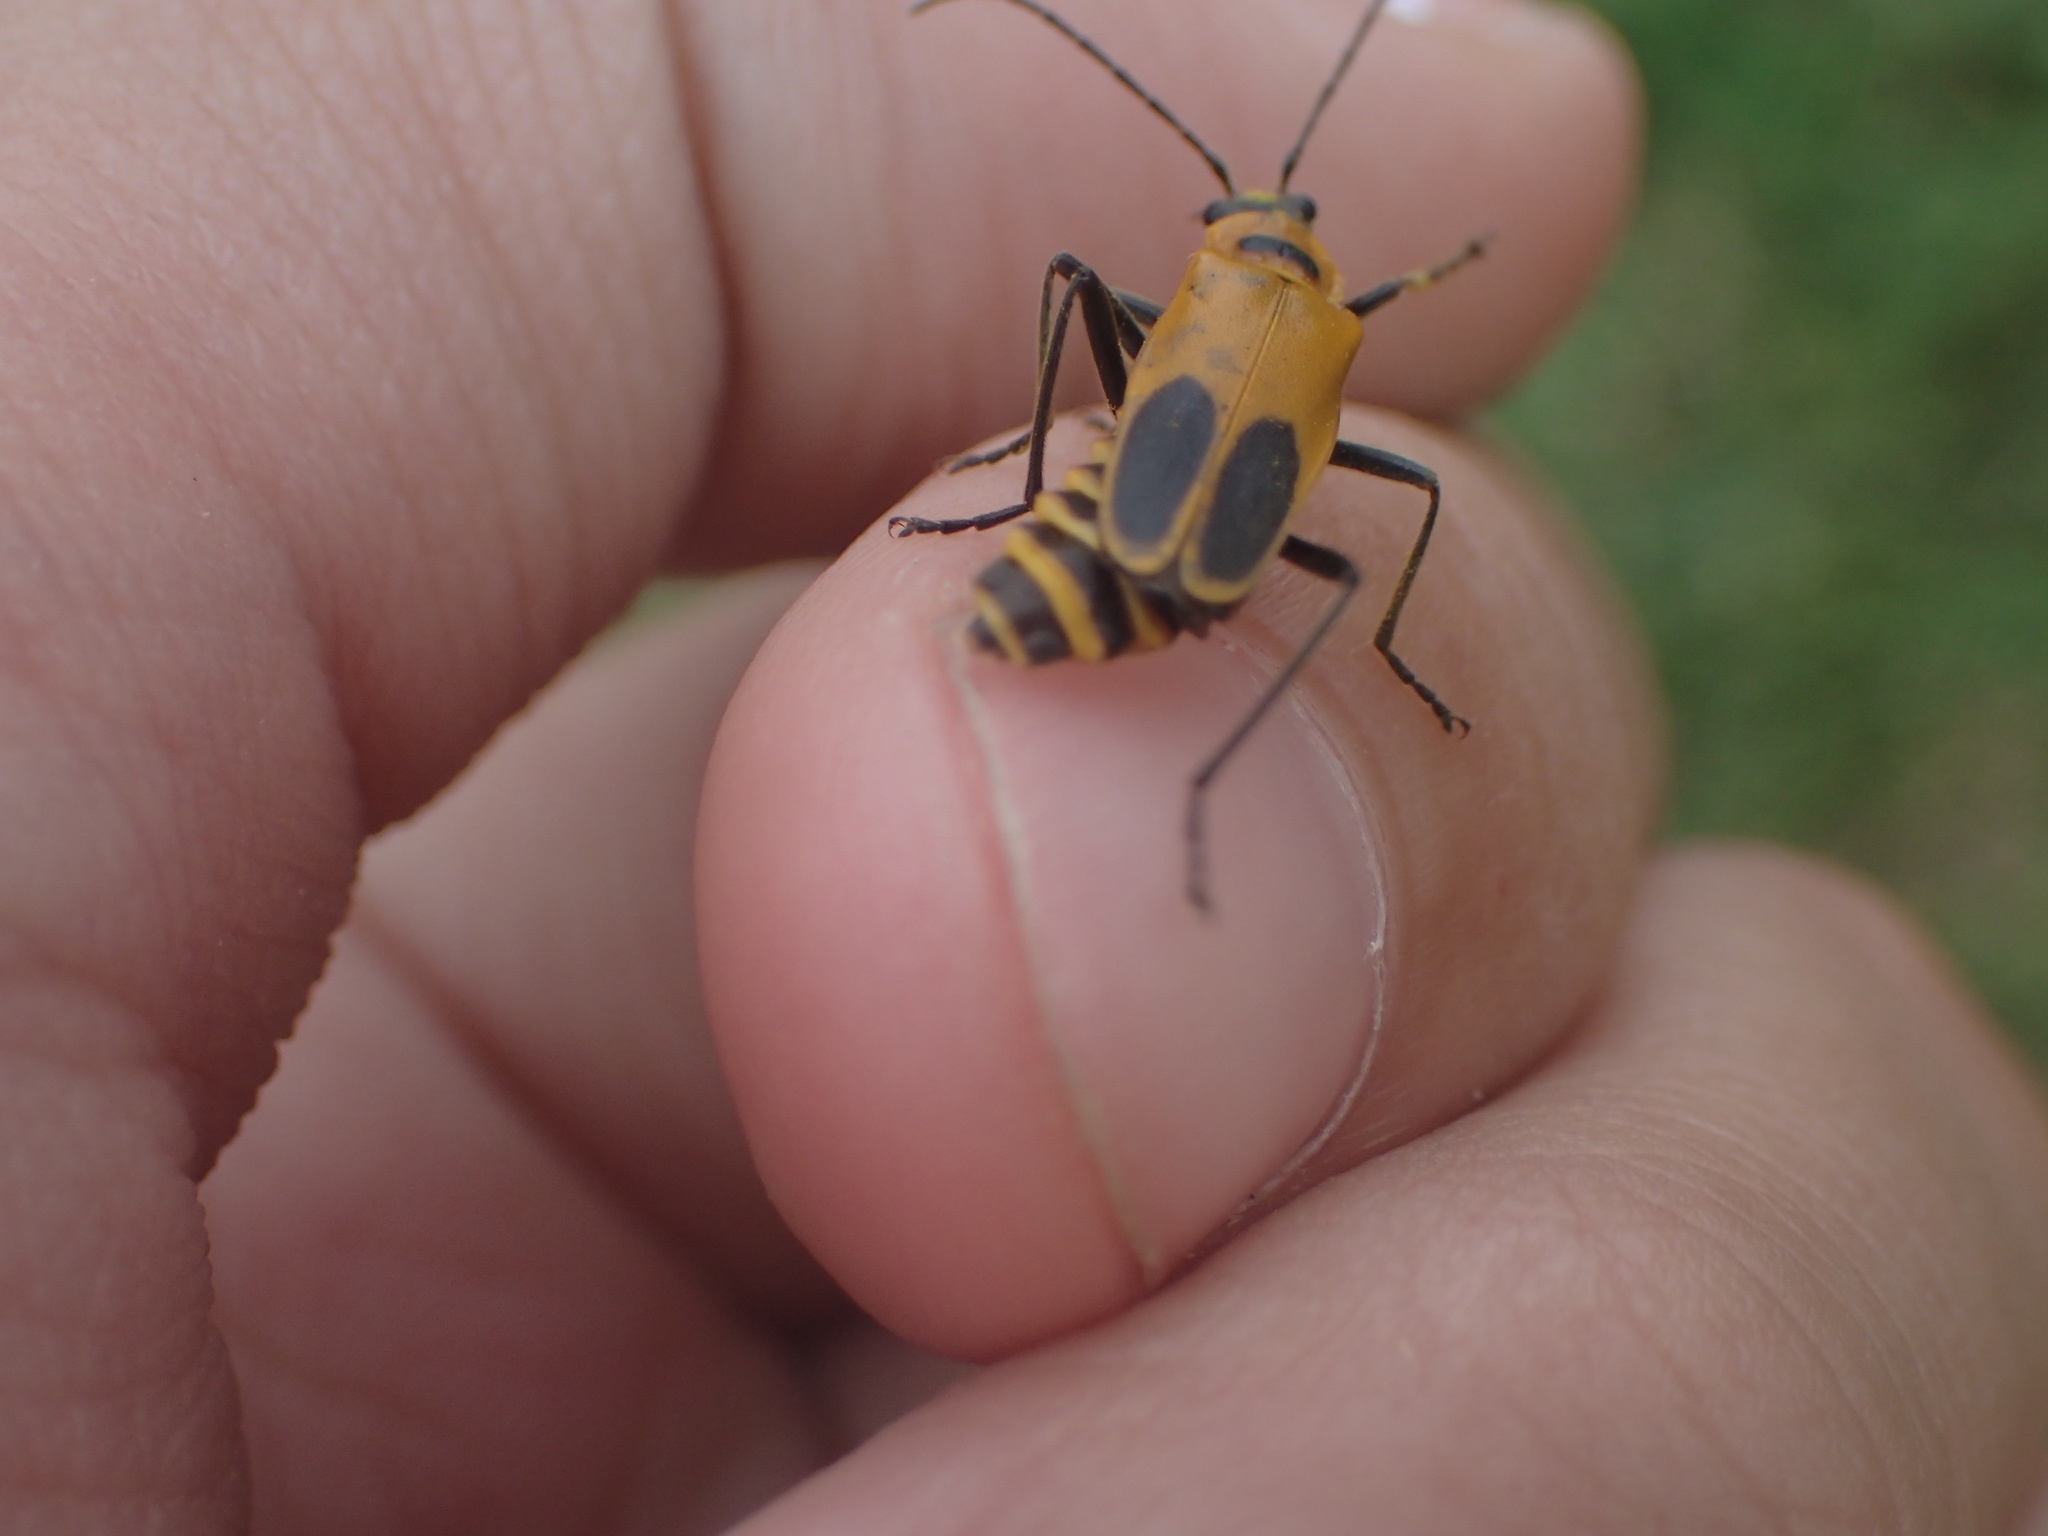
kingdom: Animalia
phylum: Arthropoda
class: Insecta
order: Coleoptera
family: Cantharidae
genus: Chauliognathus
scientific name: Chauliognathus pensylvanicus
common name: Goldenrod soldier beetle
